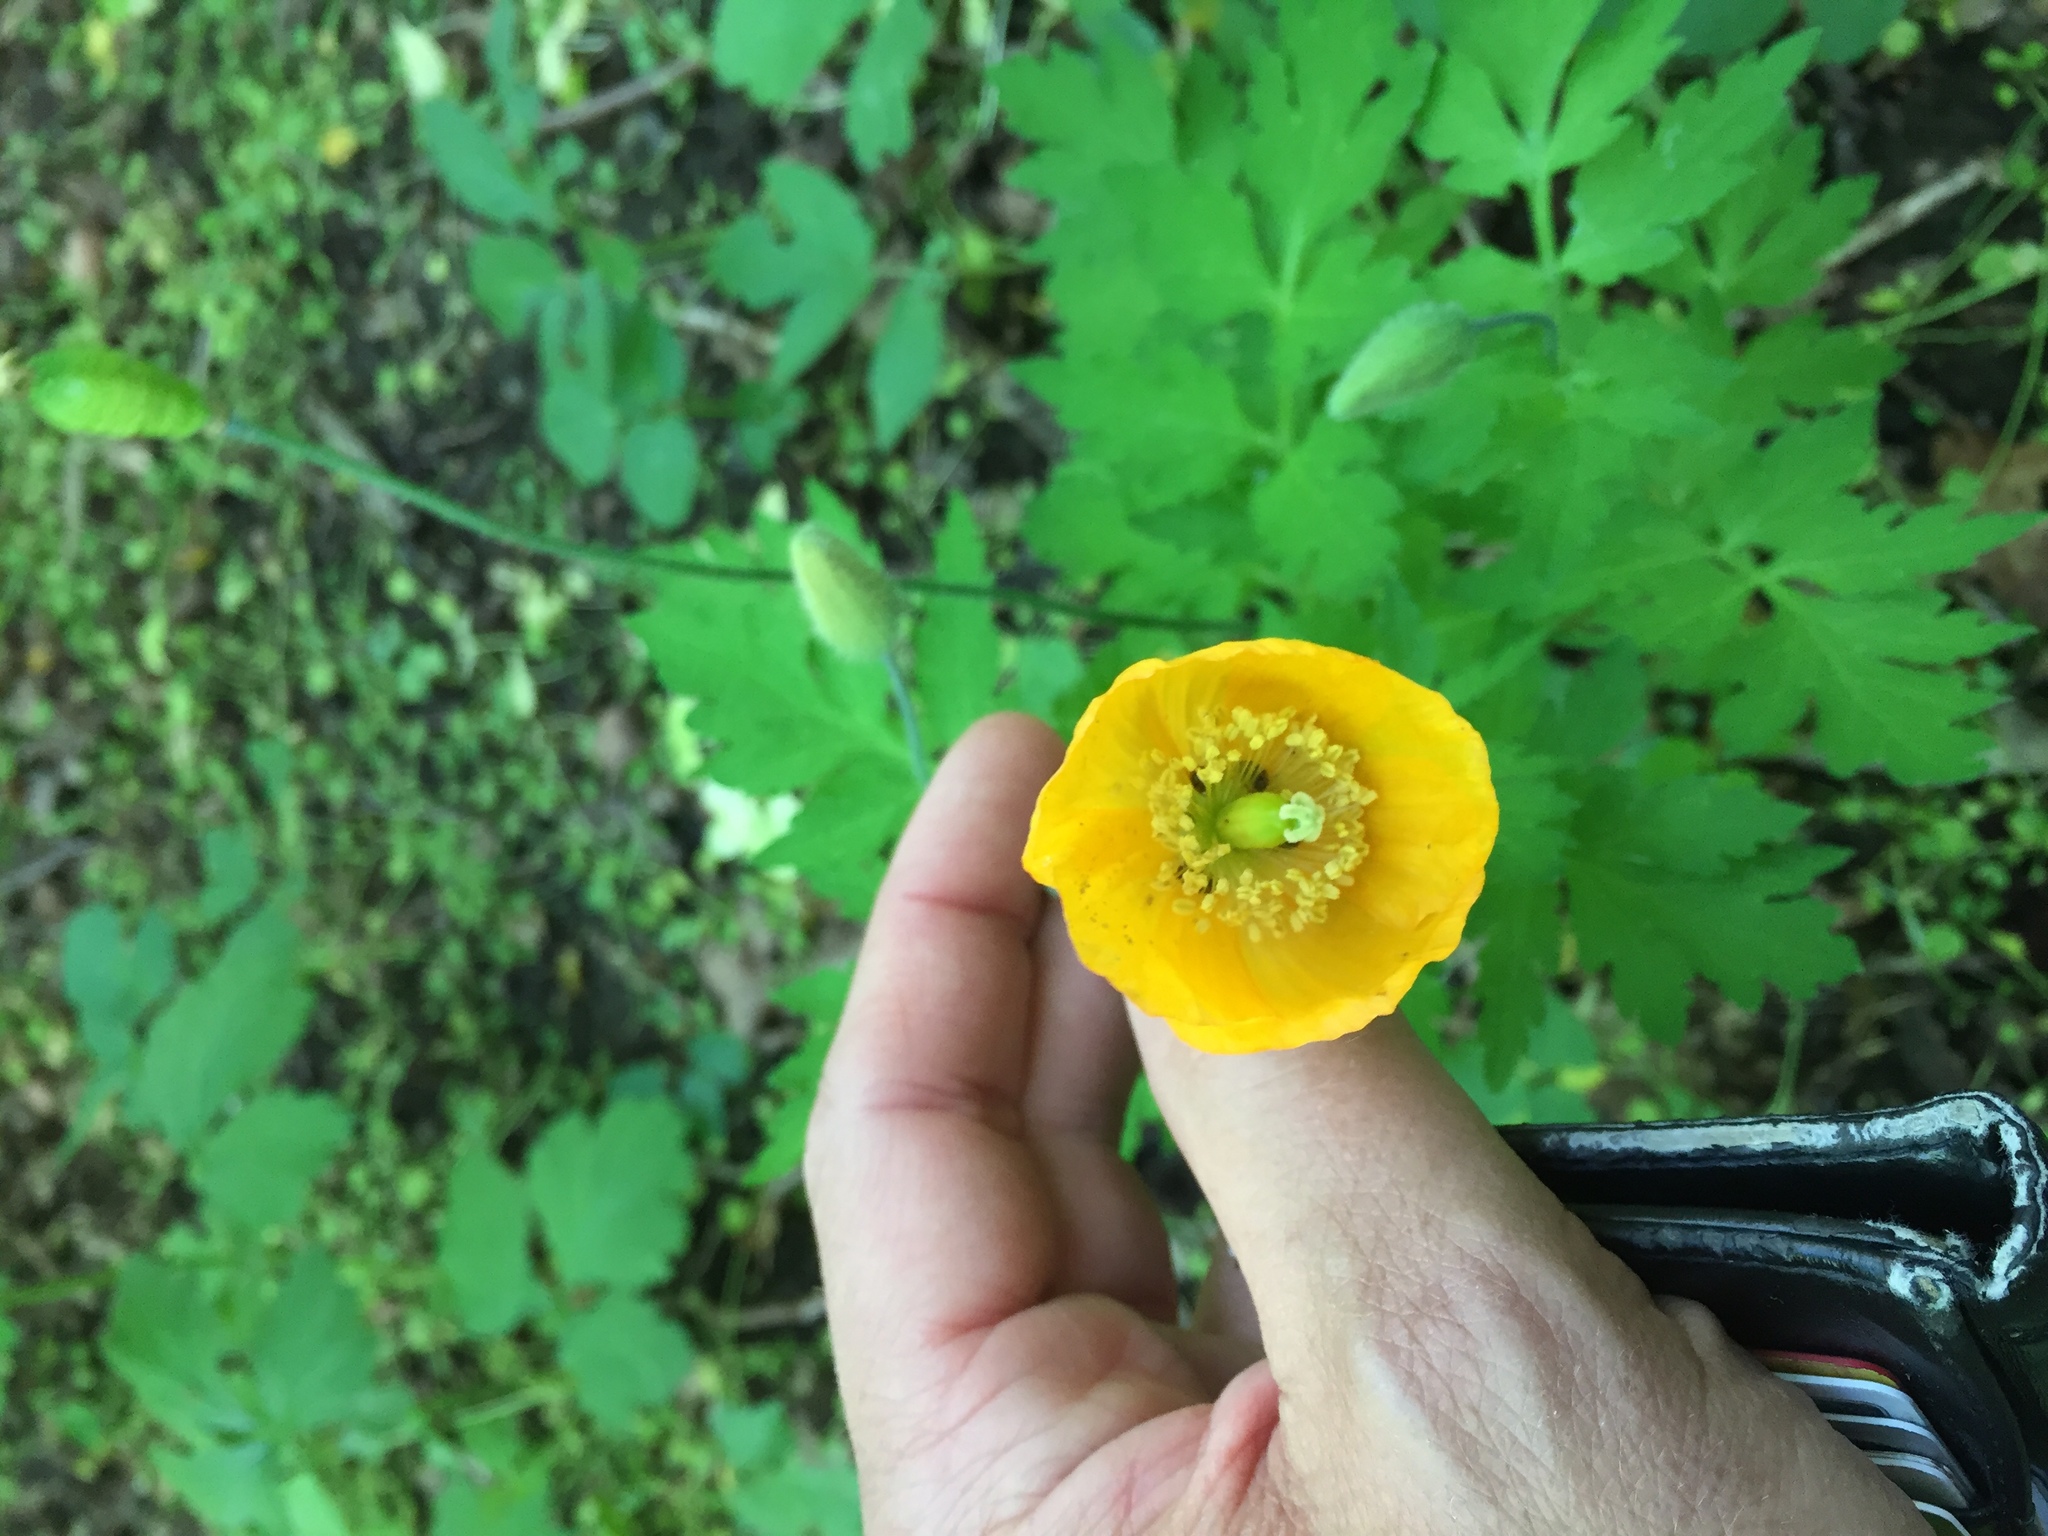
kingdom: Plantae
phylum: Tracheophyta
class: Magnoliopsida
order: Ranunculales
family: Papaveraceae
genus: Papaver
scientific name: Papaver cambricum
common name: Poppy
